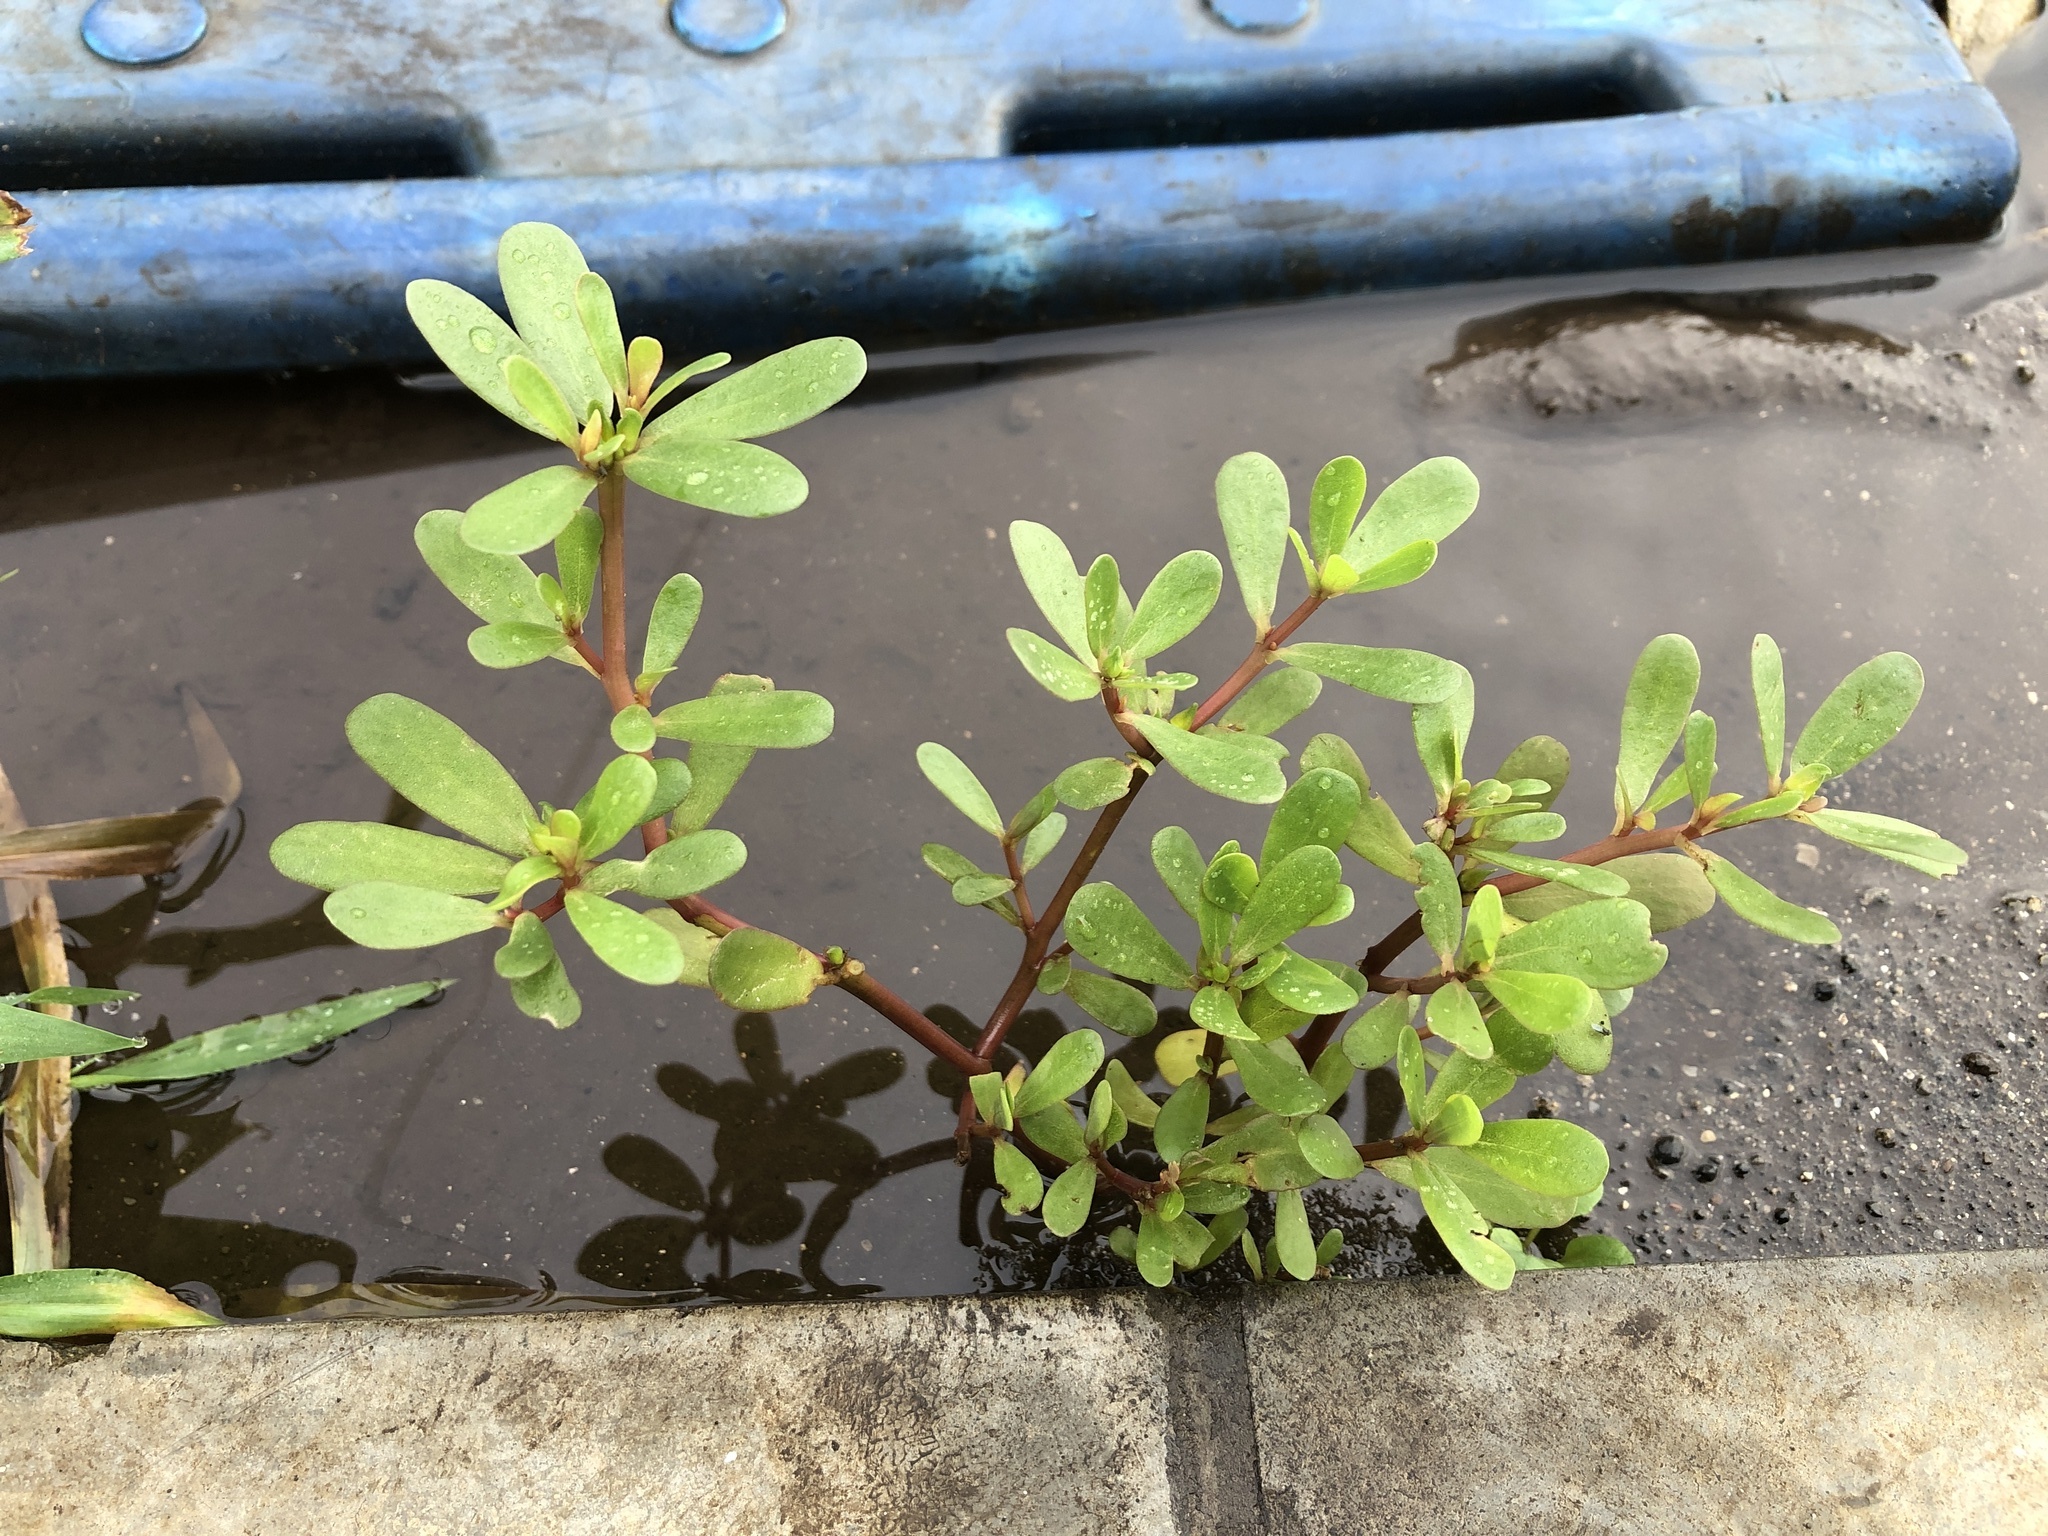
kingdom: Plantae
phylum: Tracheophyta
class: Magnoliopsida
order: Caryophyllales
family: Portulacaceae
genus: Portulaca
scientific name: Portulaca oleracea
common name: Common purslane
